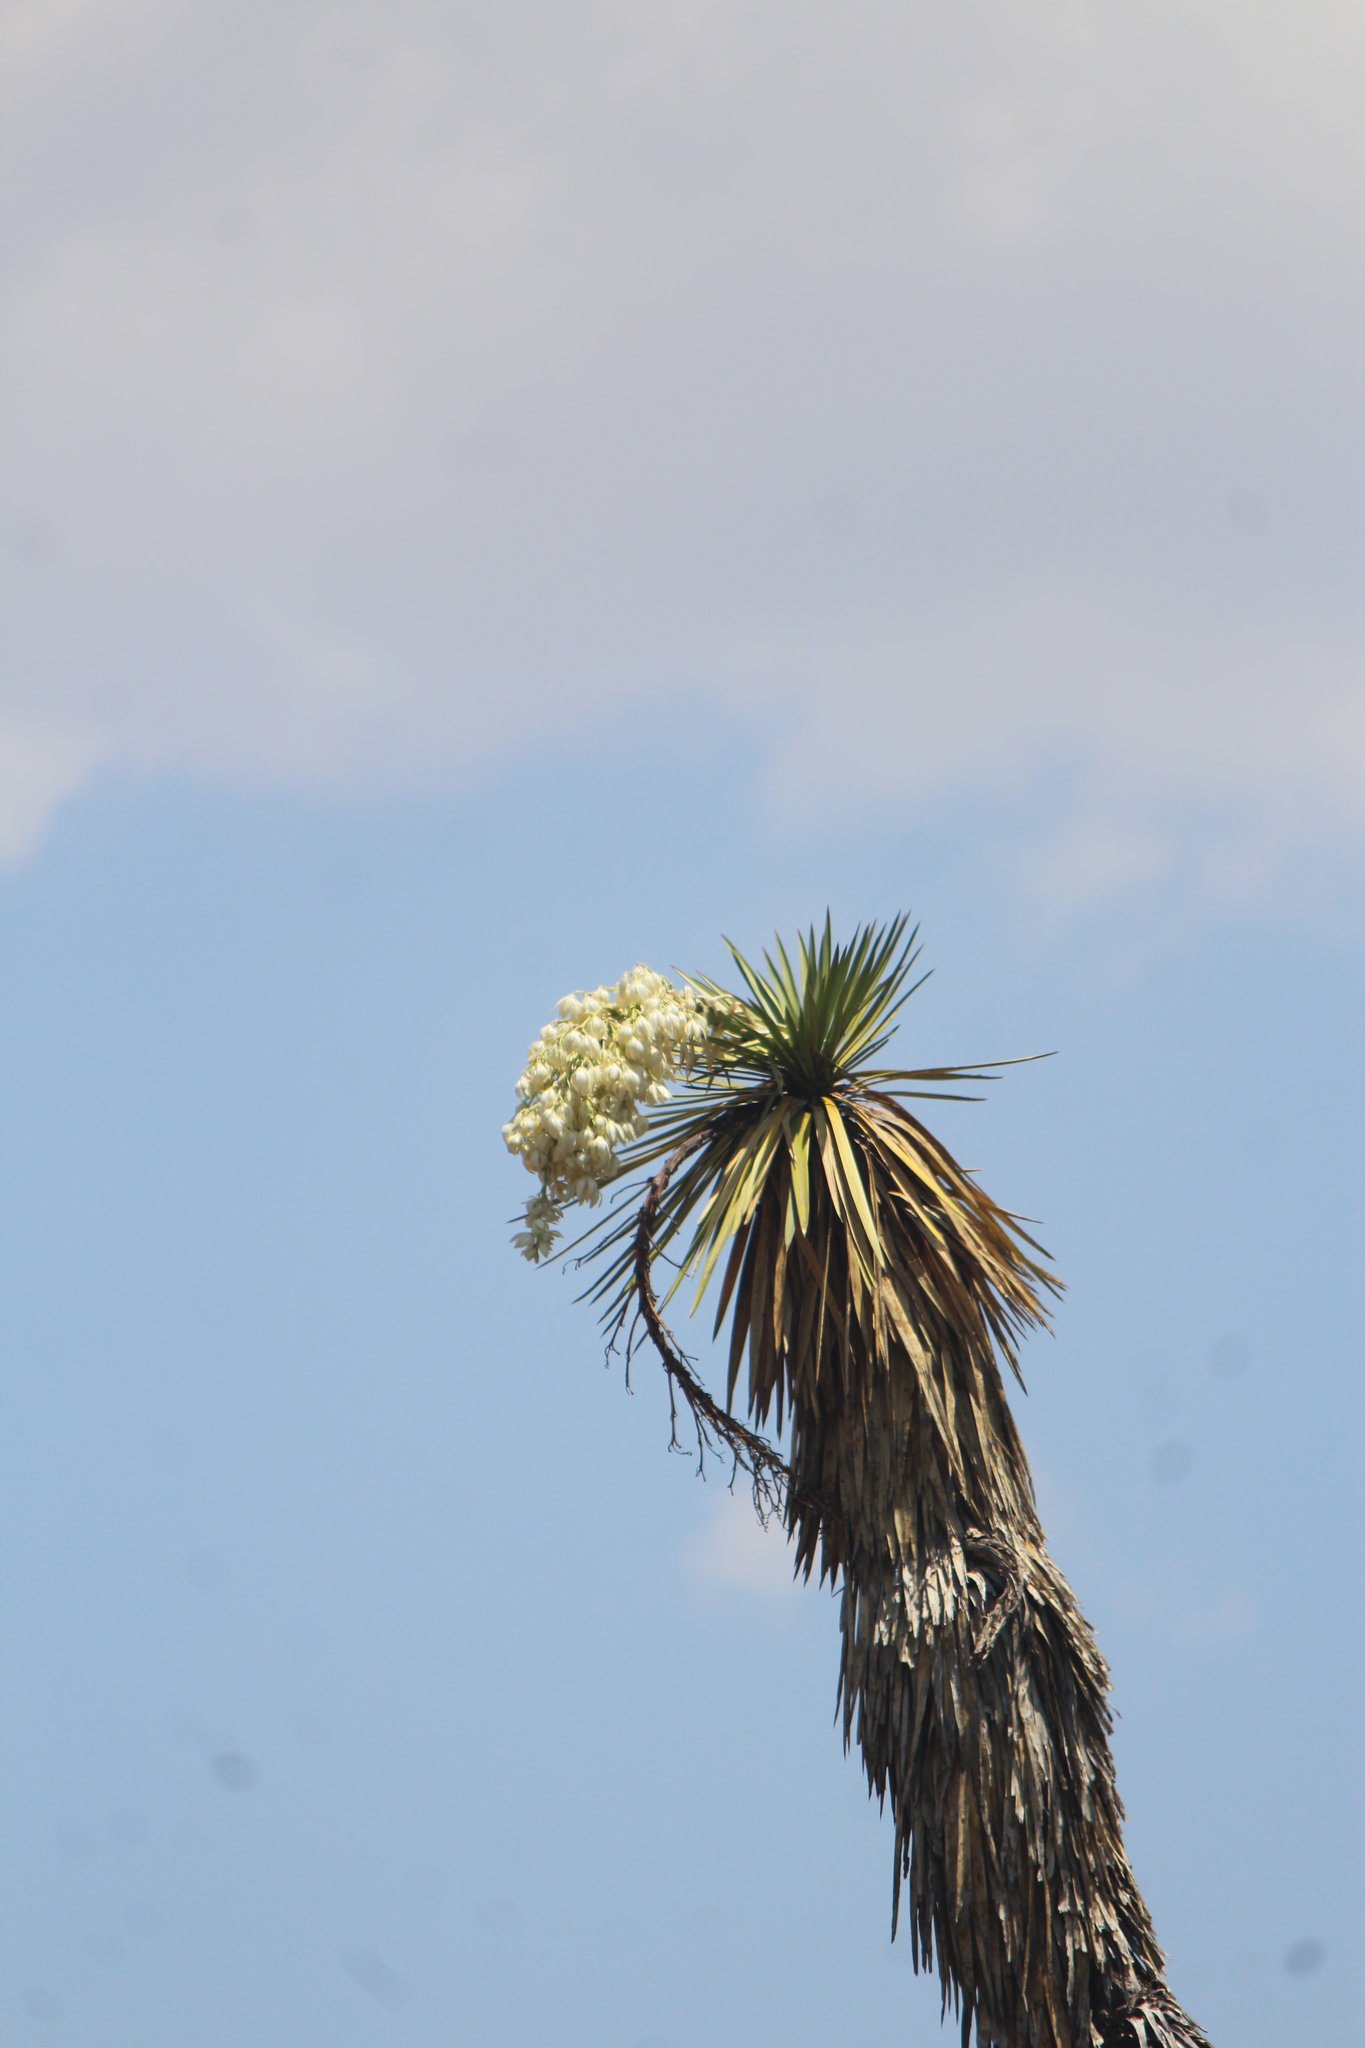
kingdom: Plantae
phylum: Tracheophyta
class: Liliopsida
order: Asparagales
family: Asparagaceae
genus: Yucca
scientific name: Yucca filifera
